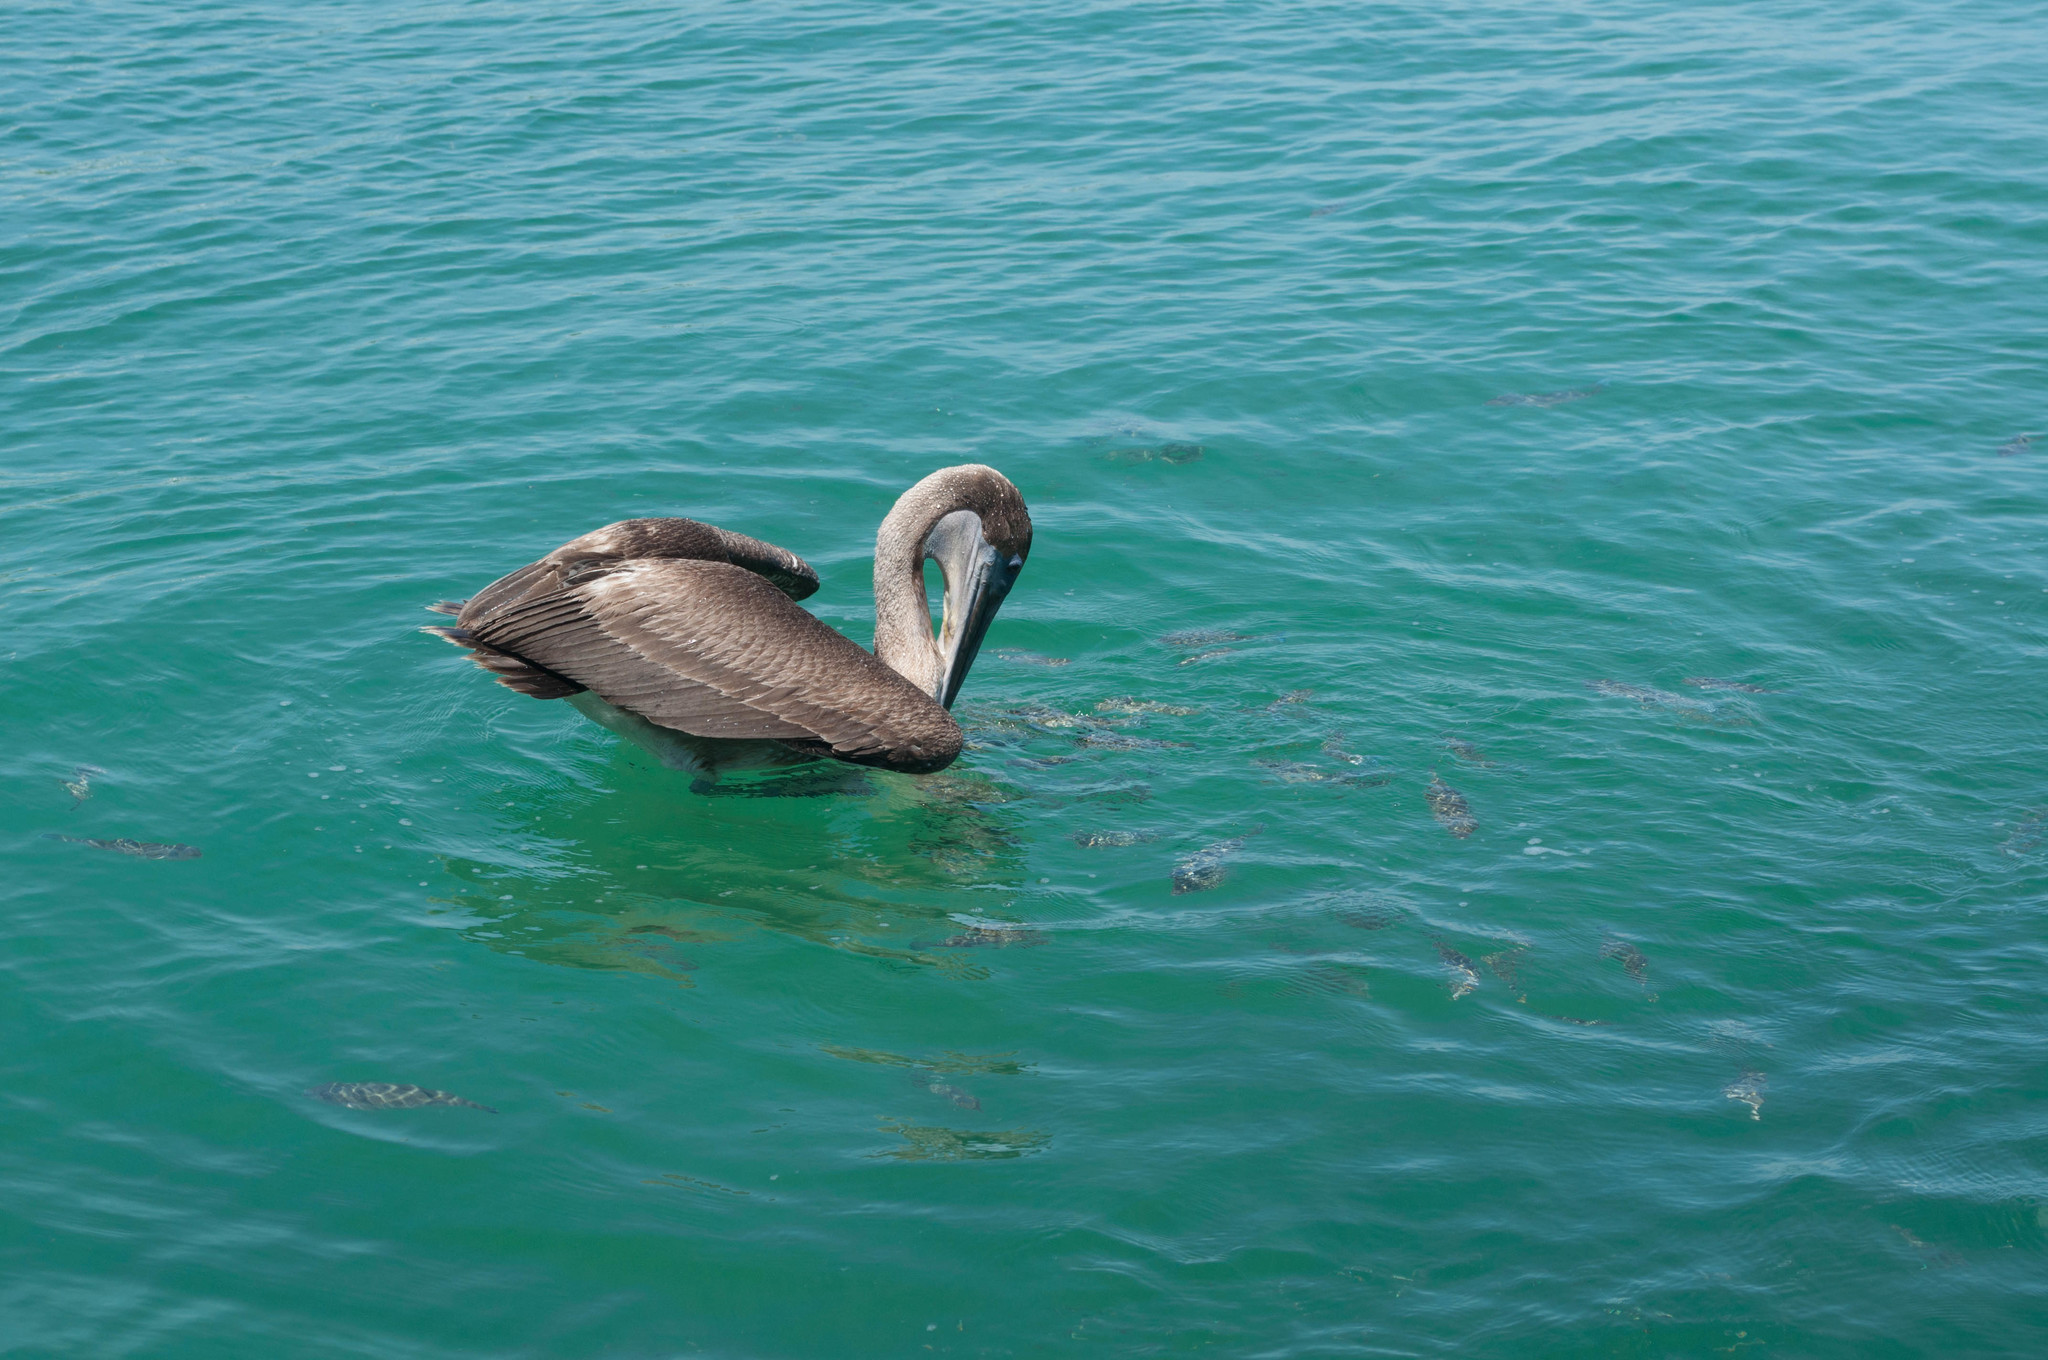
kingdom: Animalia
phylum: Chordata
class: Aves
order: Pelecaniformes
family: Pelecanidae
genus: Pelecanus
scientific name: Pelecanus occidentalis
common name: Brown pelican
